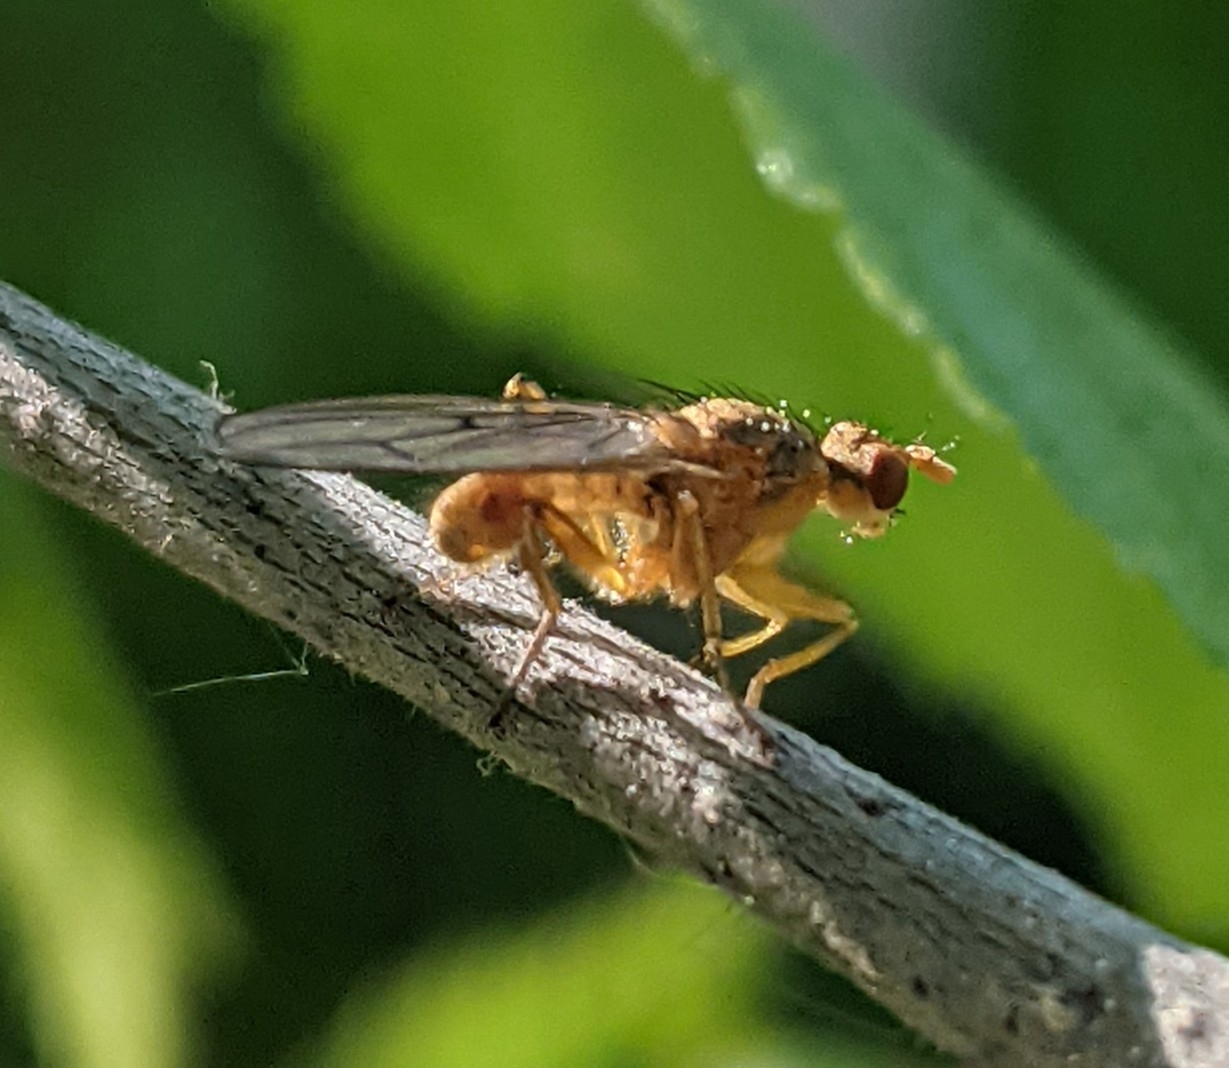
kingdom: Animalia
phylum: Arthropoda
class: Insecta
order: Diptera
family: Scathophagidae
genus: Scathophaga
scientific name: Scathophaga stercoraria
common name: Yellow dung fly
